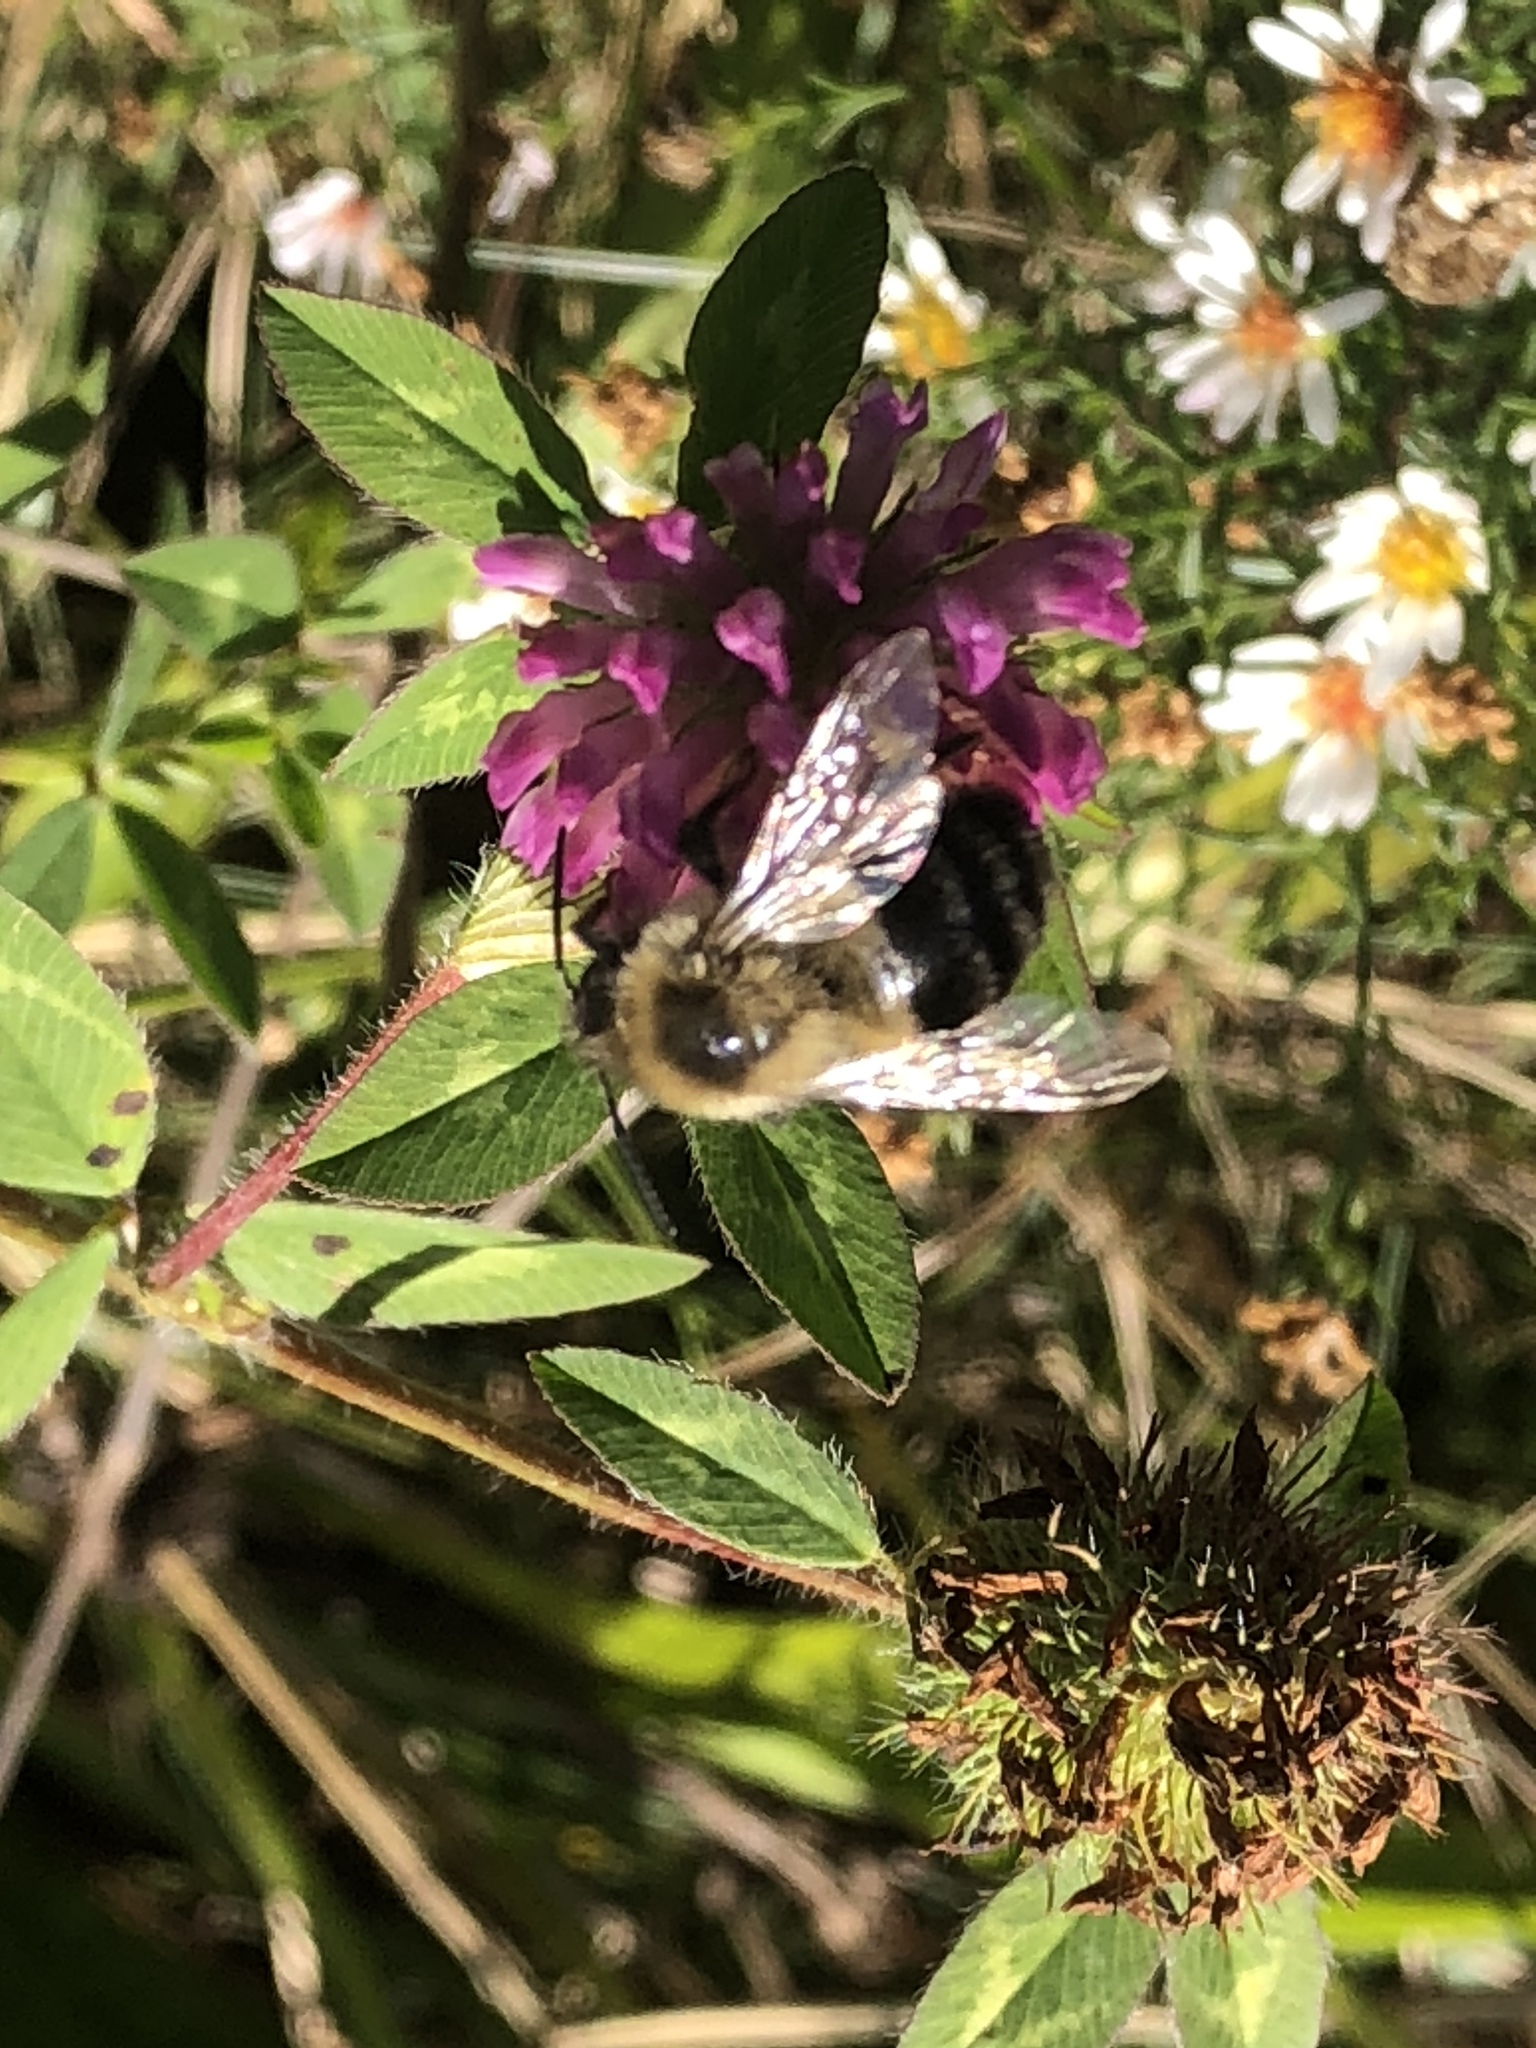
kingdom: Animalia
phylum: Arthropoda
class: Insecta
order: Hymenoptera
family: Apidae
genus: Bombus
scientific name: Bombus impatiens
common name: Common eastern bumble bee
